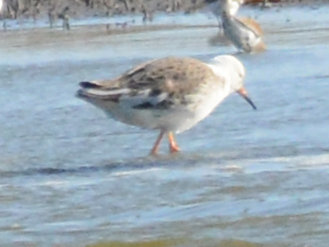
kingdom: Animalia
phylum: Chordata
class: Aves
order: Charadriiformes
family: Scolopacidae
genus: Calidris
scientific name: Calidris pugnax
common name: Ruff
